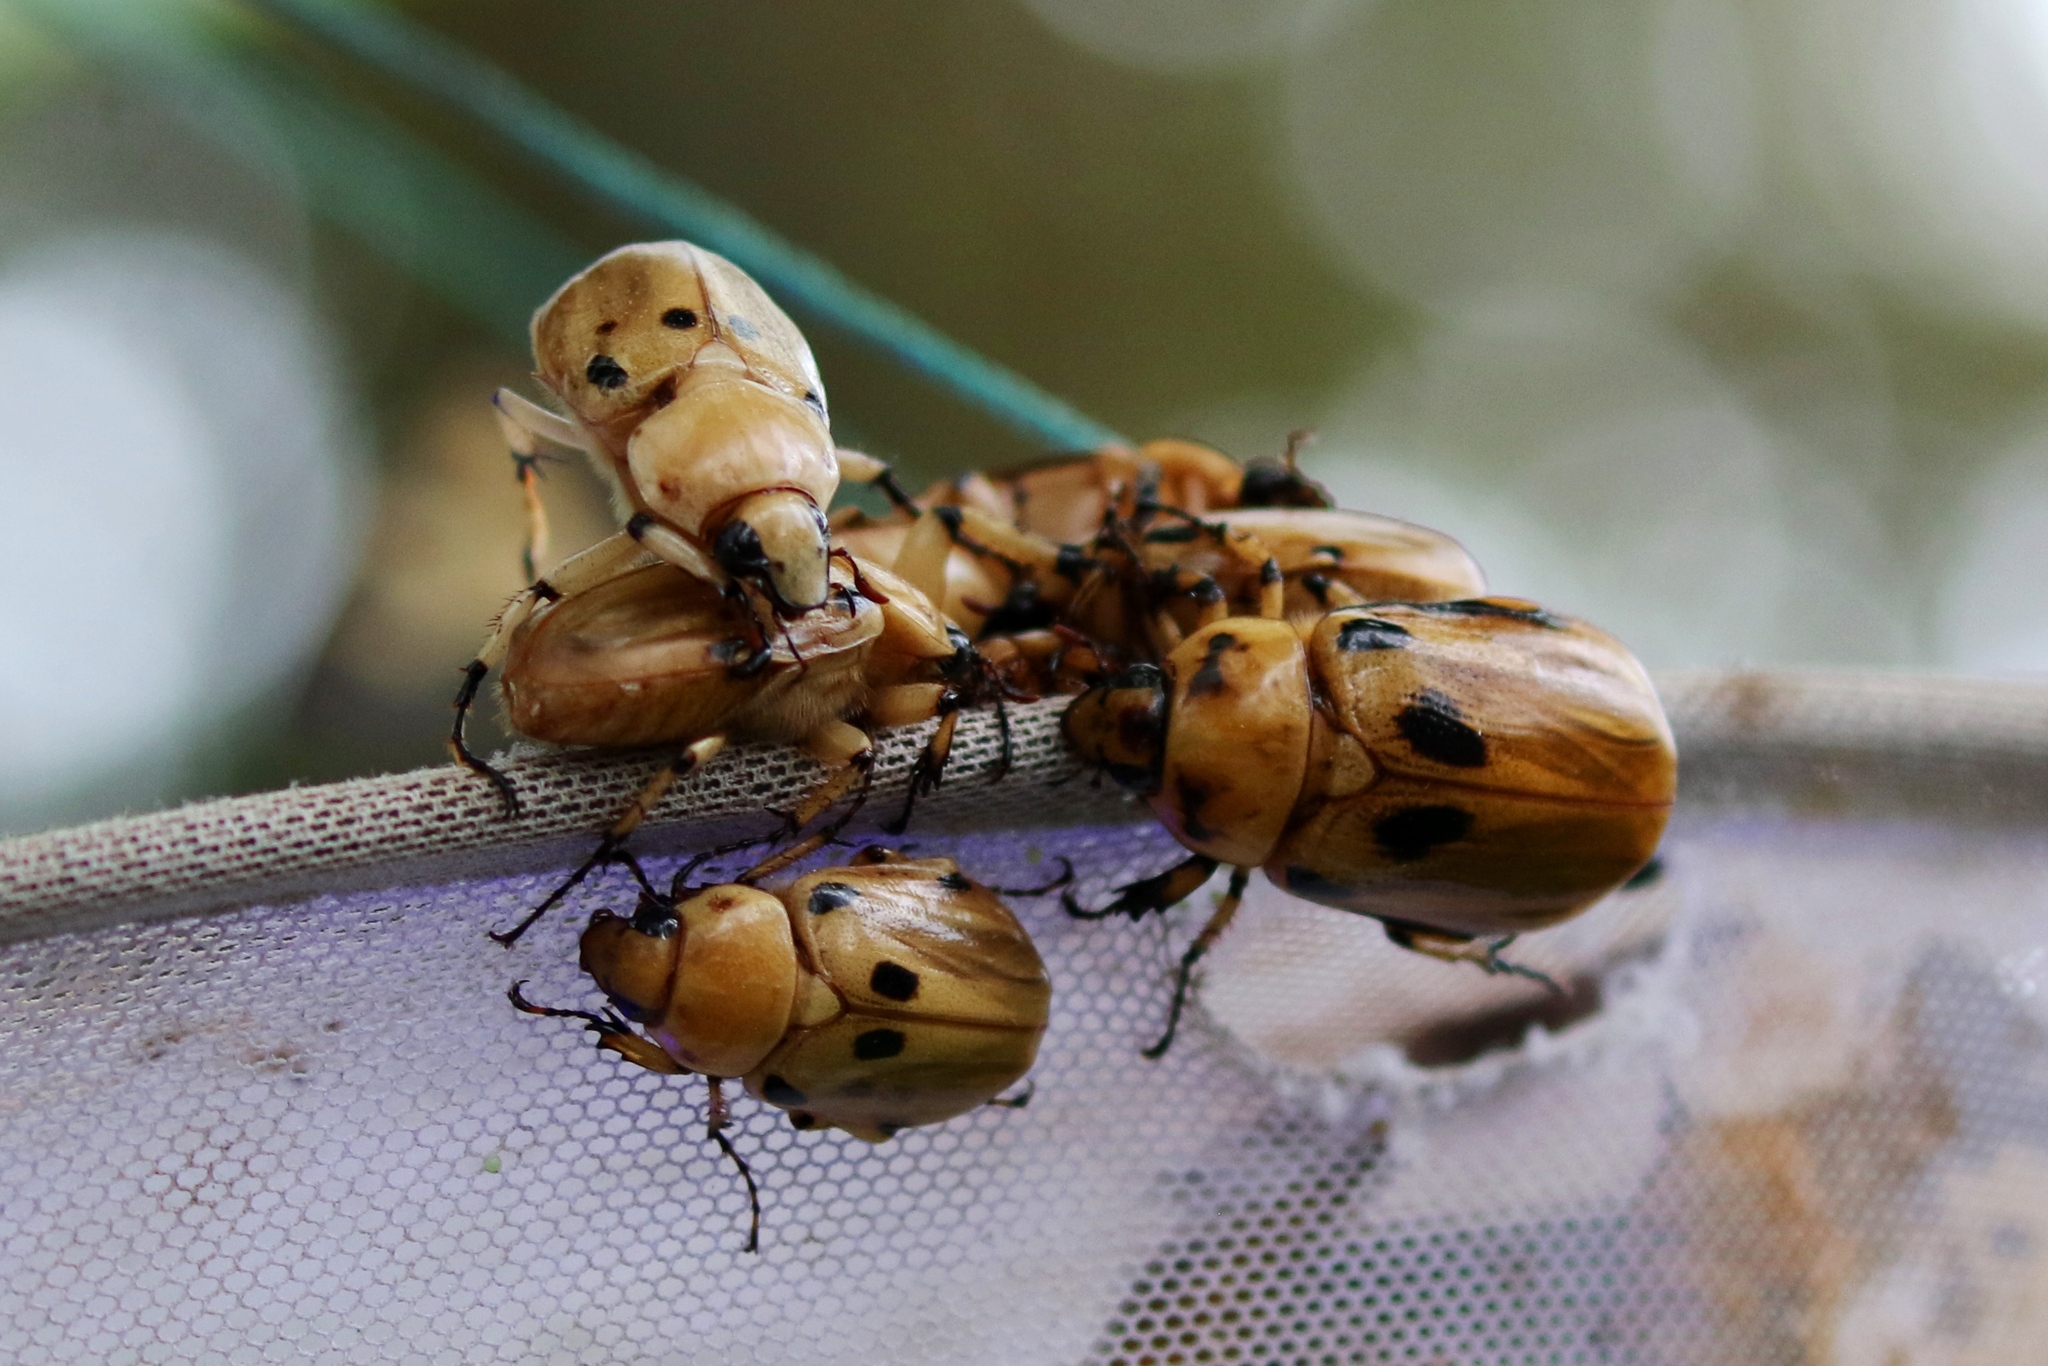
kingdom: Animalia
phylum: Arthropoda
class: Insecta
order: Coleoptera
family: Scarabaeidae
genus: Ancognatha
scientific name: Ancognatha vulgaris
